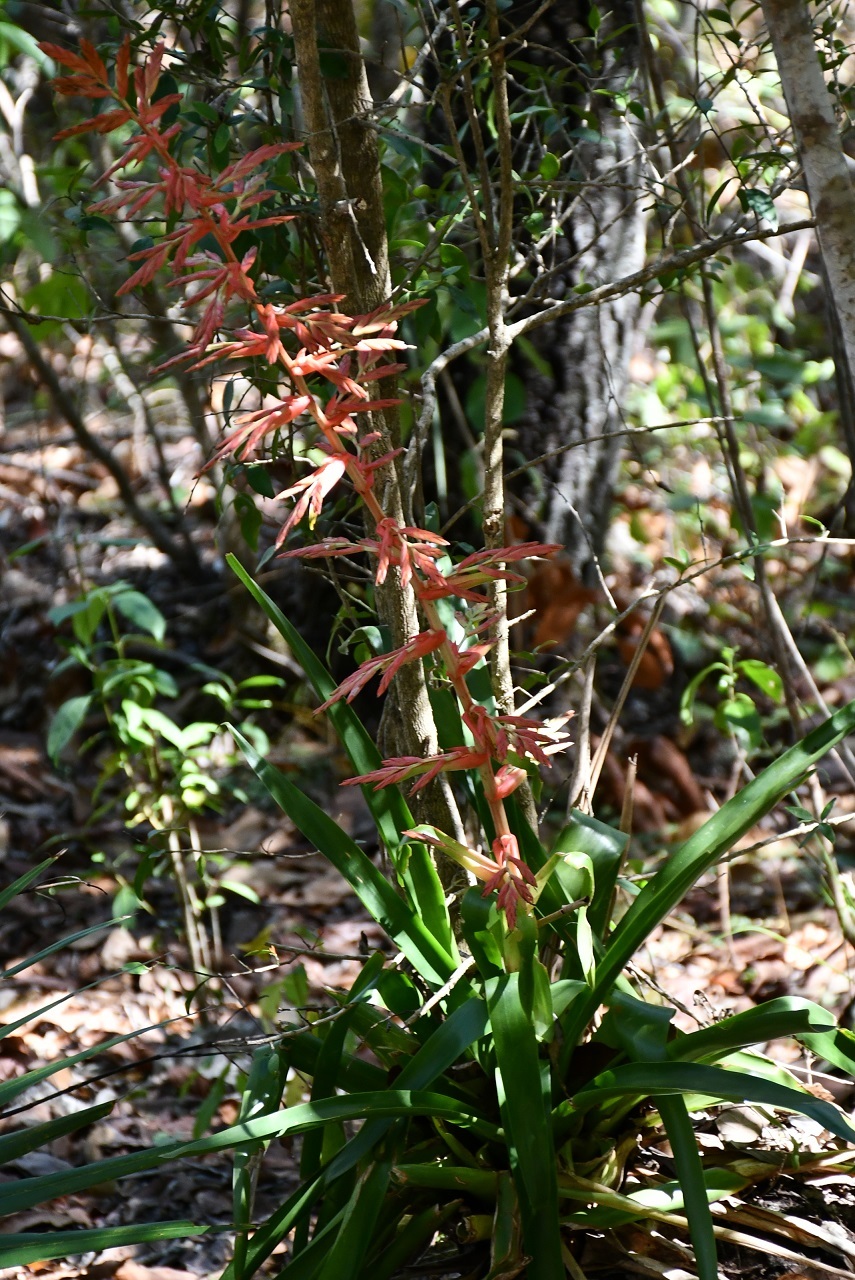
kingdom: Plantae
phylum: Tracheophyta
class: Liliopsida
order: Poales
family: Bromeliaceae
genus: Tillandsia
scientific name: Tillandsia guatemalensis
